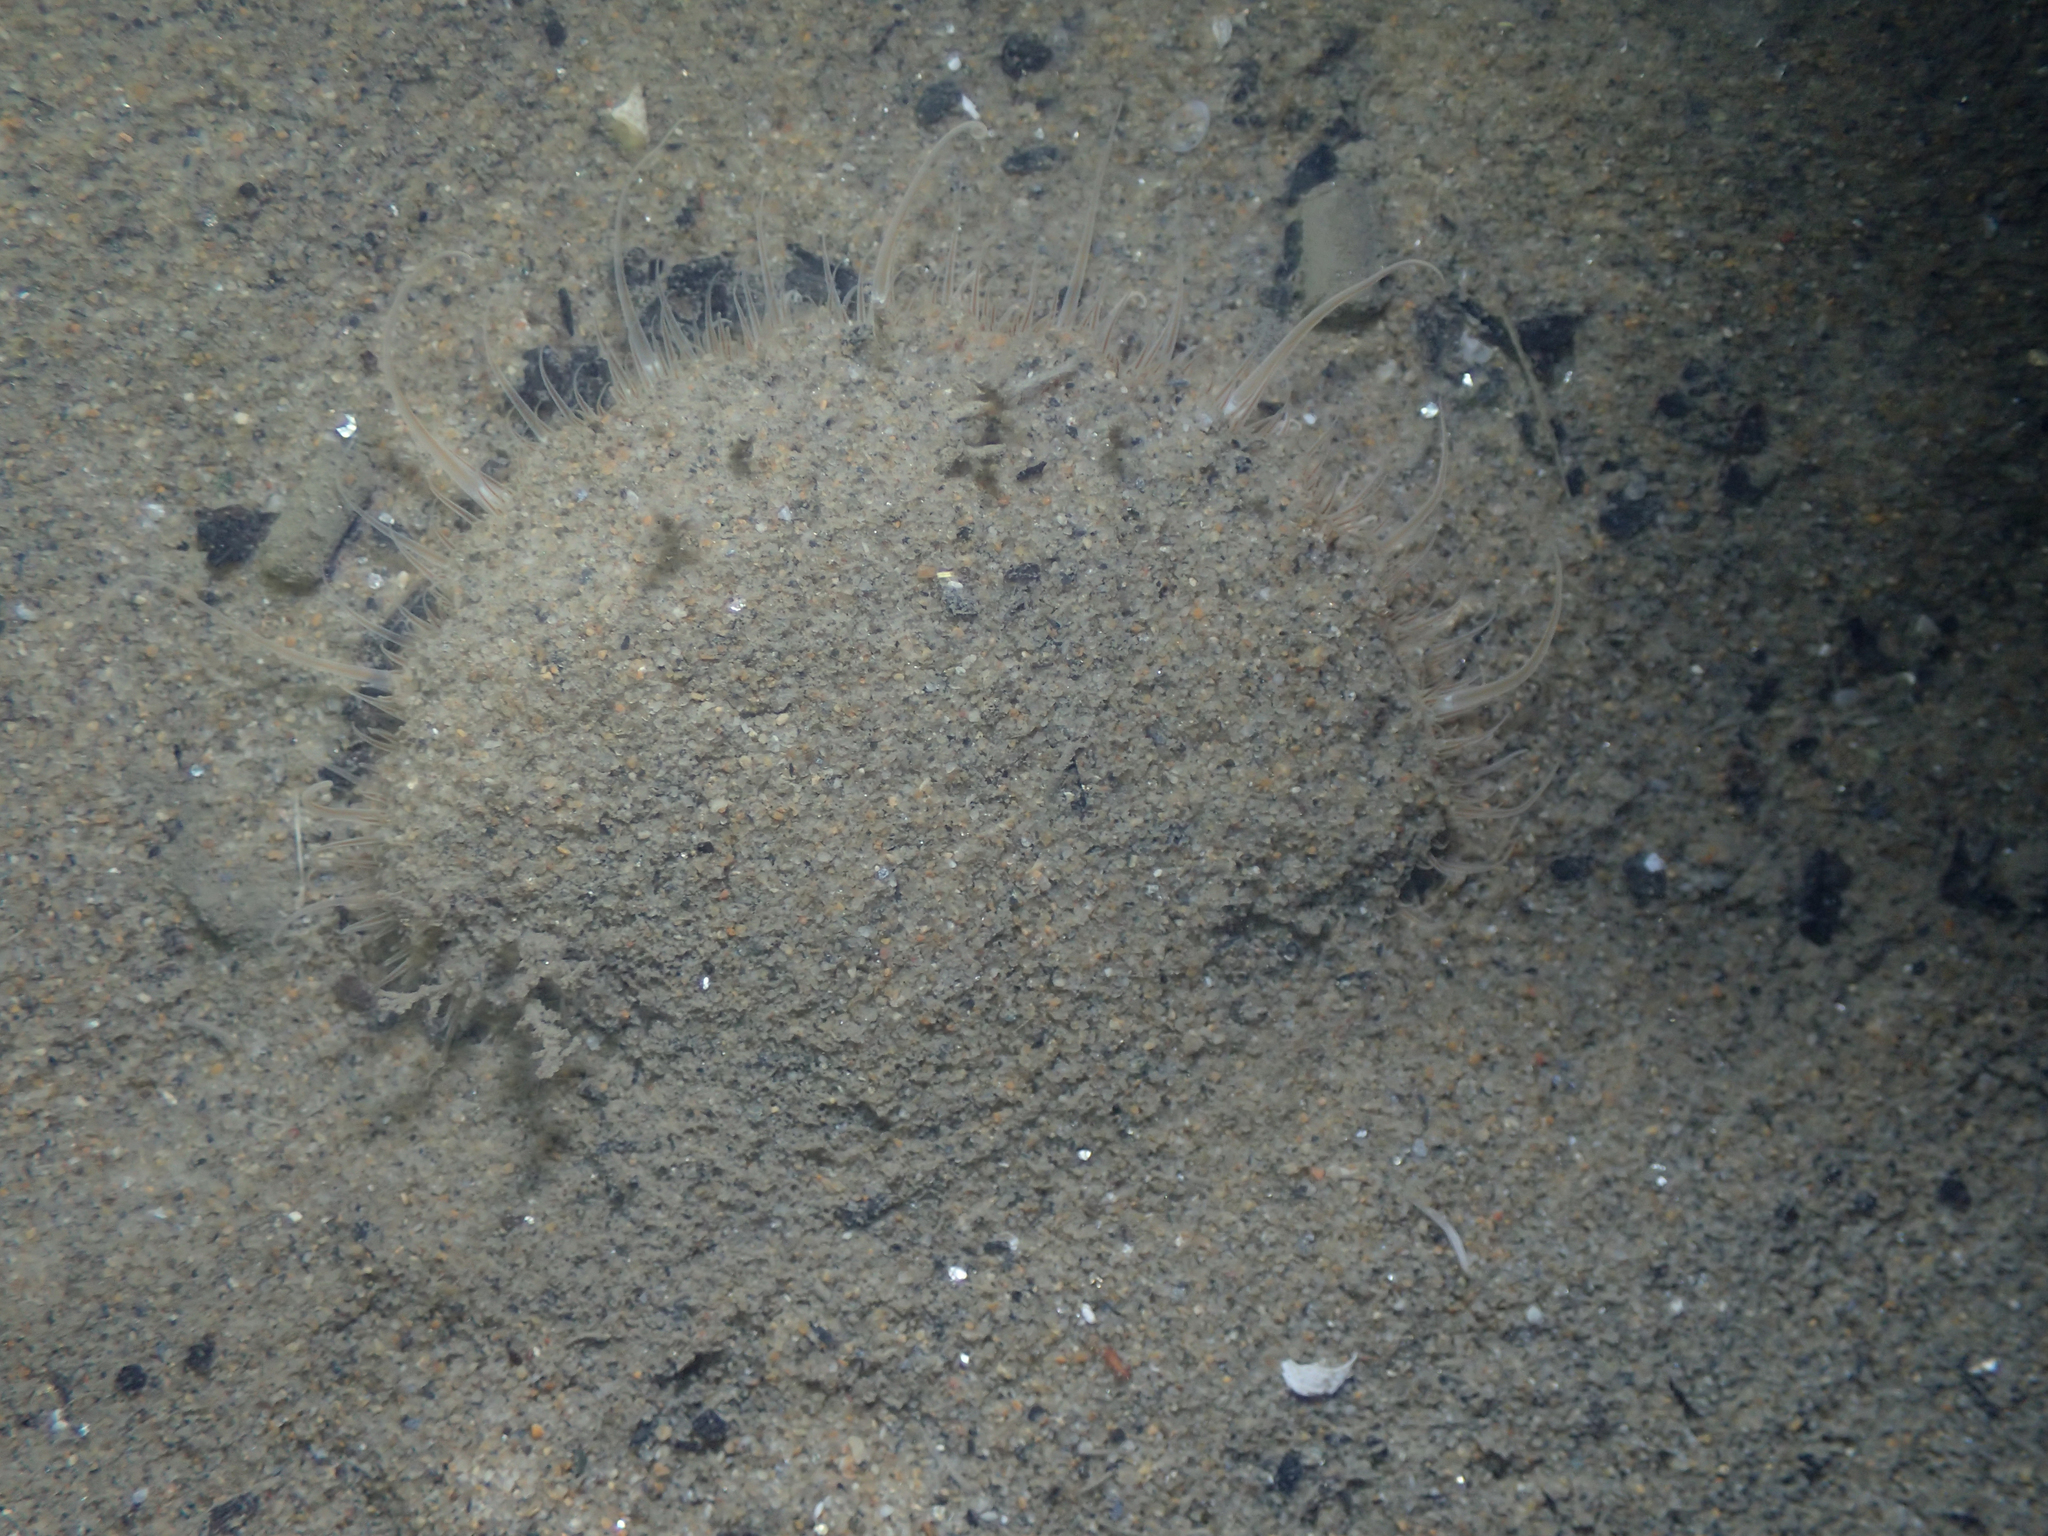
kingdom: Animalia
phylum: Mollusca
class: Bivalvia
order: Pectinida
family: Pectinidae
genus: Pecten
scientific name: Pecten jacobaeus
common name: St.james's scallop
